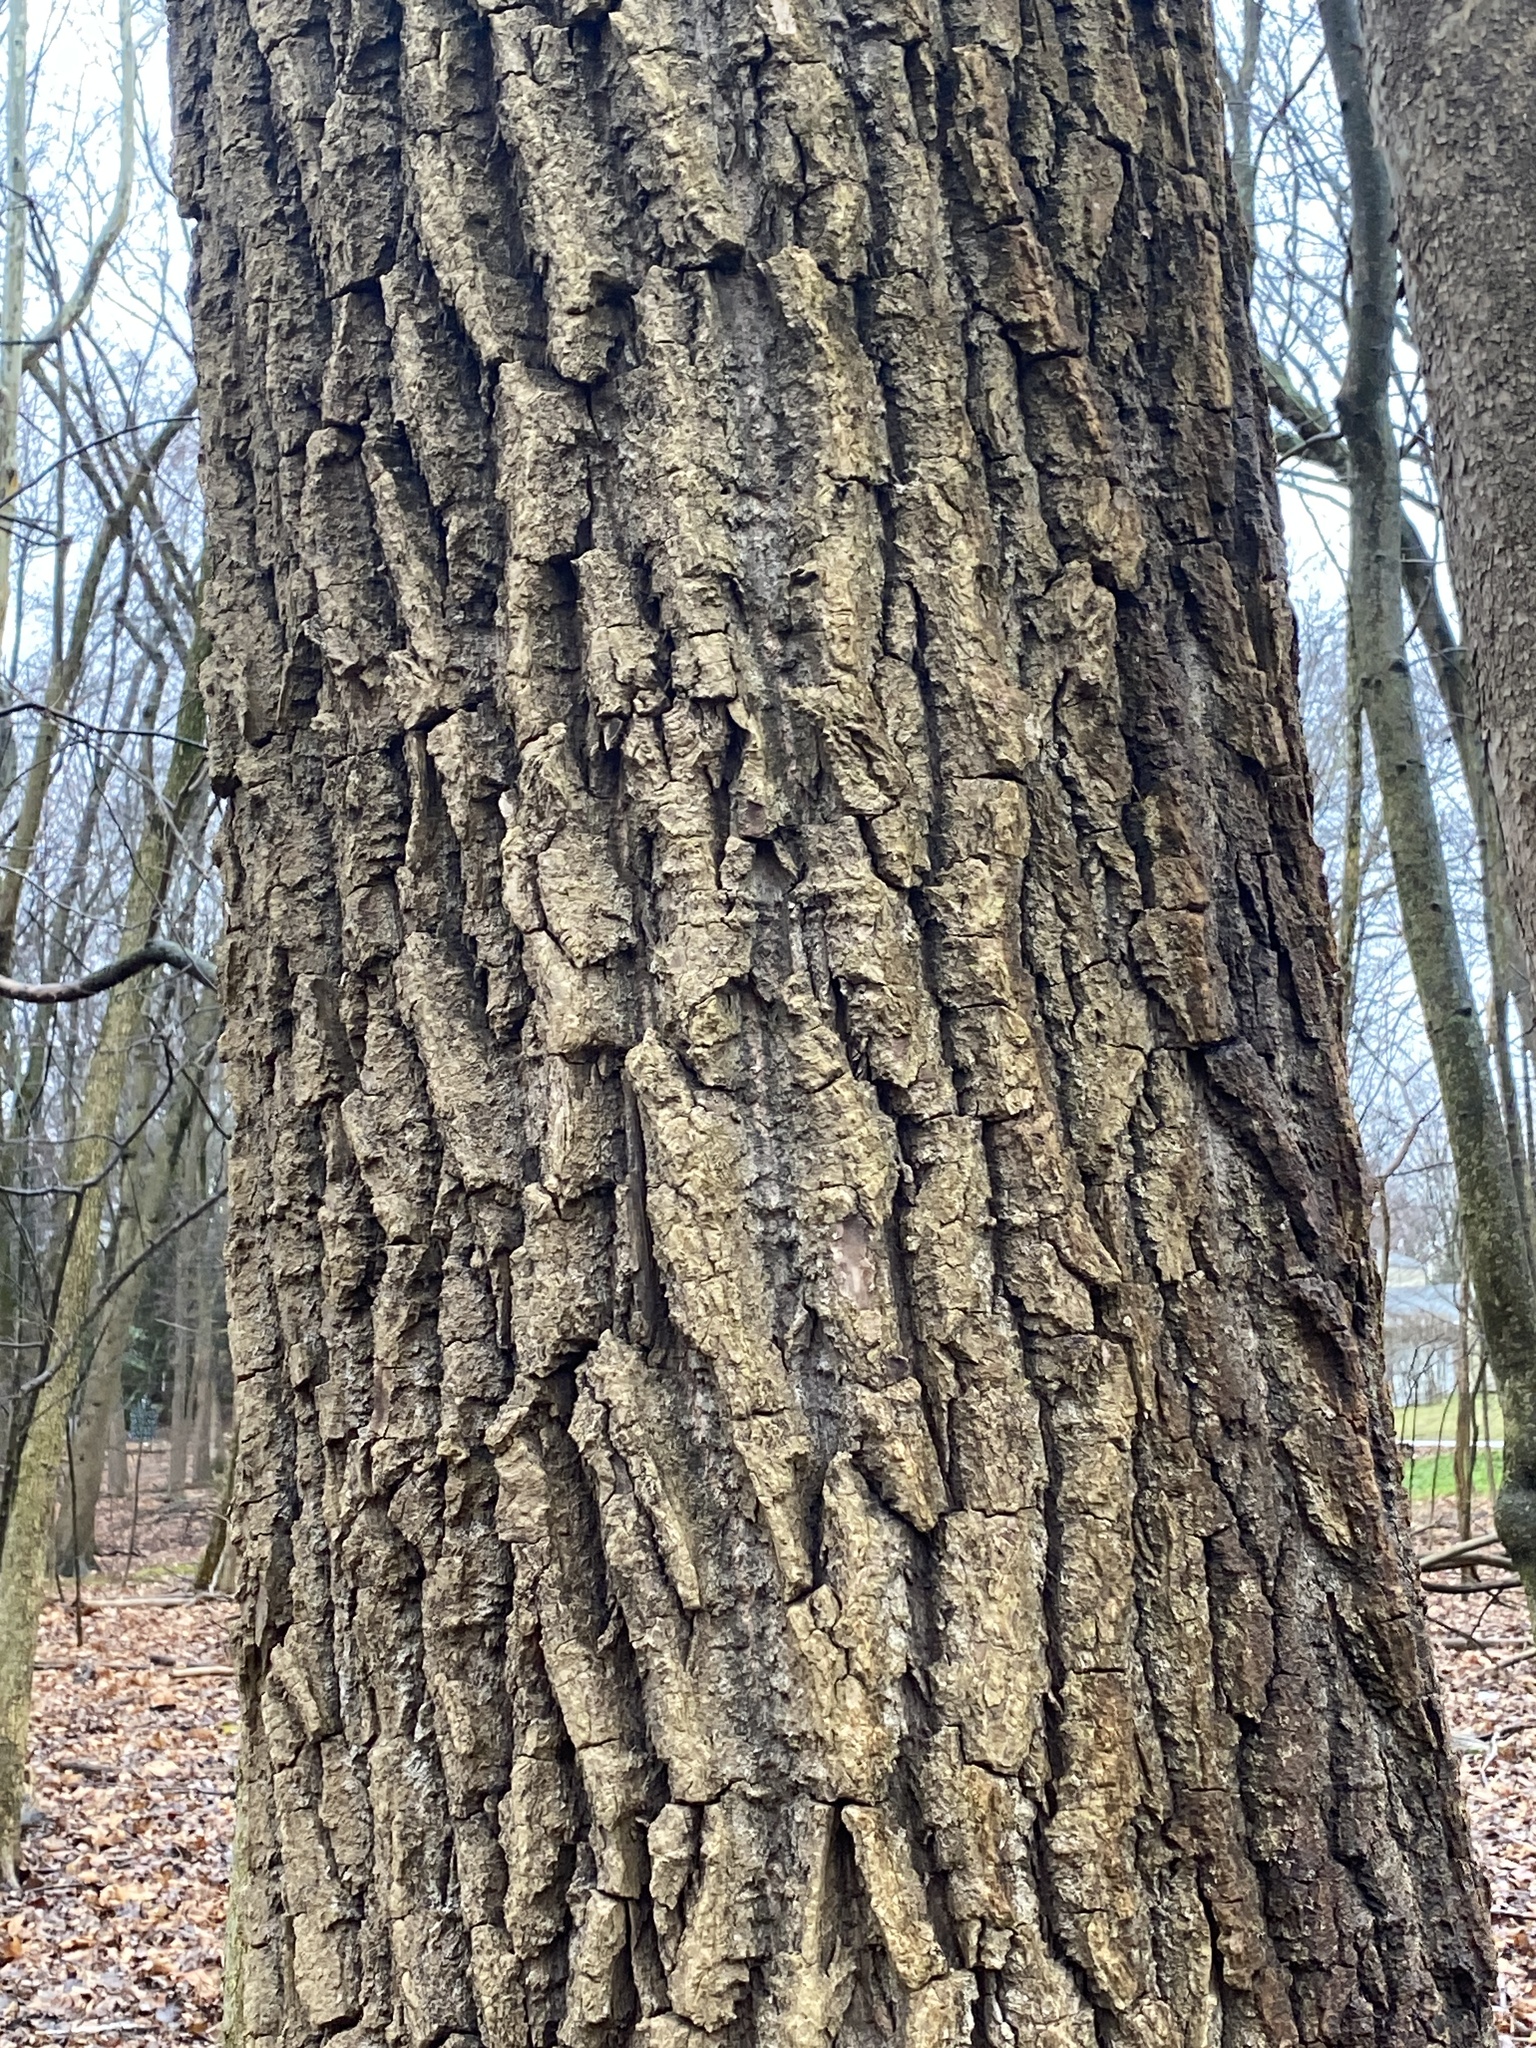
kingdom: Plantae
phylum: Tracheophyta
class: Magnoliopsida
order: Malpighiales
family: Salicaceae
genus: Populus
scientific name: Populus deltoides
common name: Eastern cottonwood
